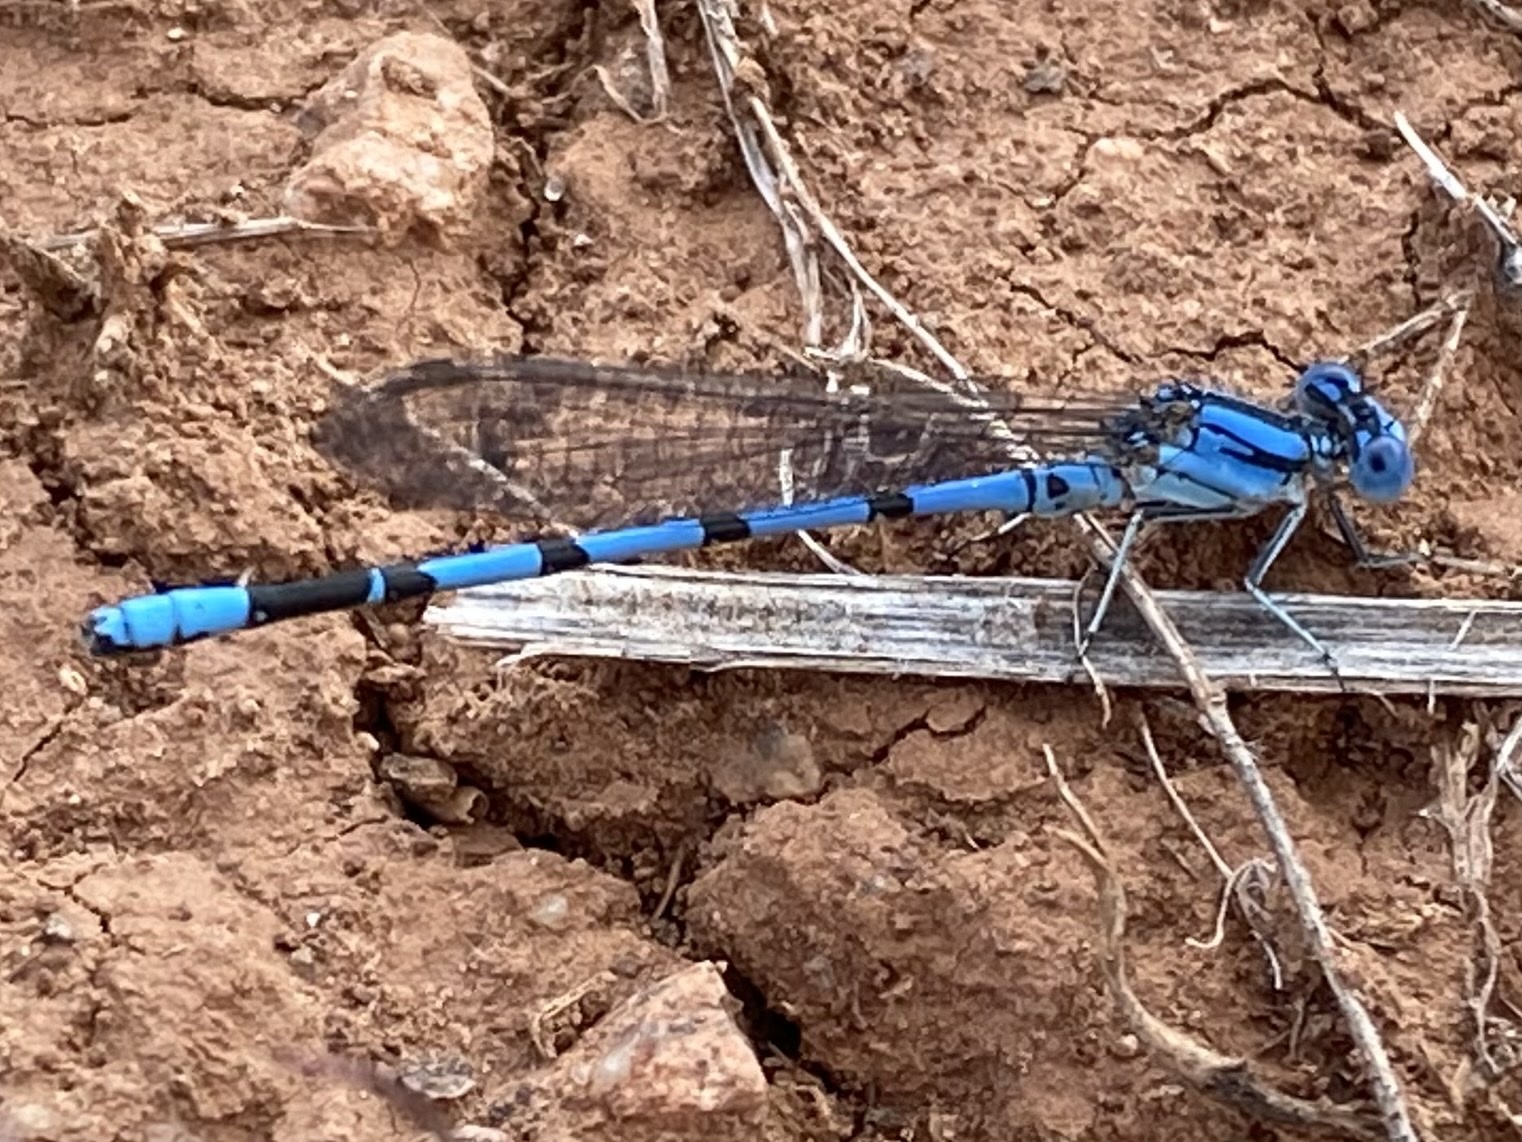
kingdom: Animalia
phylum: Arthropoda
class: Insecta
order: Odonata
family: Coenagrionidae
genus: Argia
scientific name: Argia nahuana
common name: Aztec dancer
